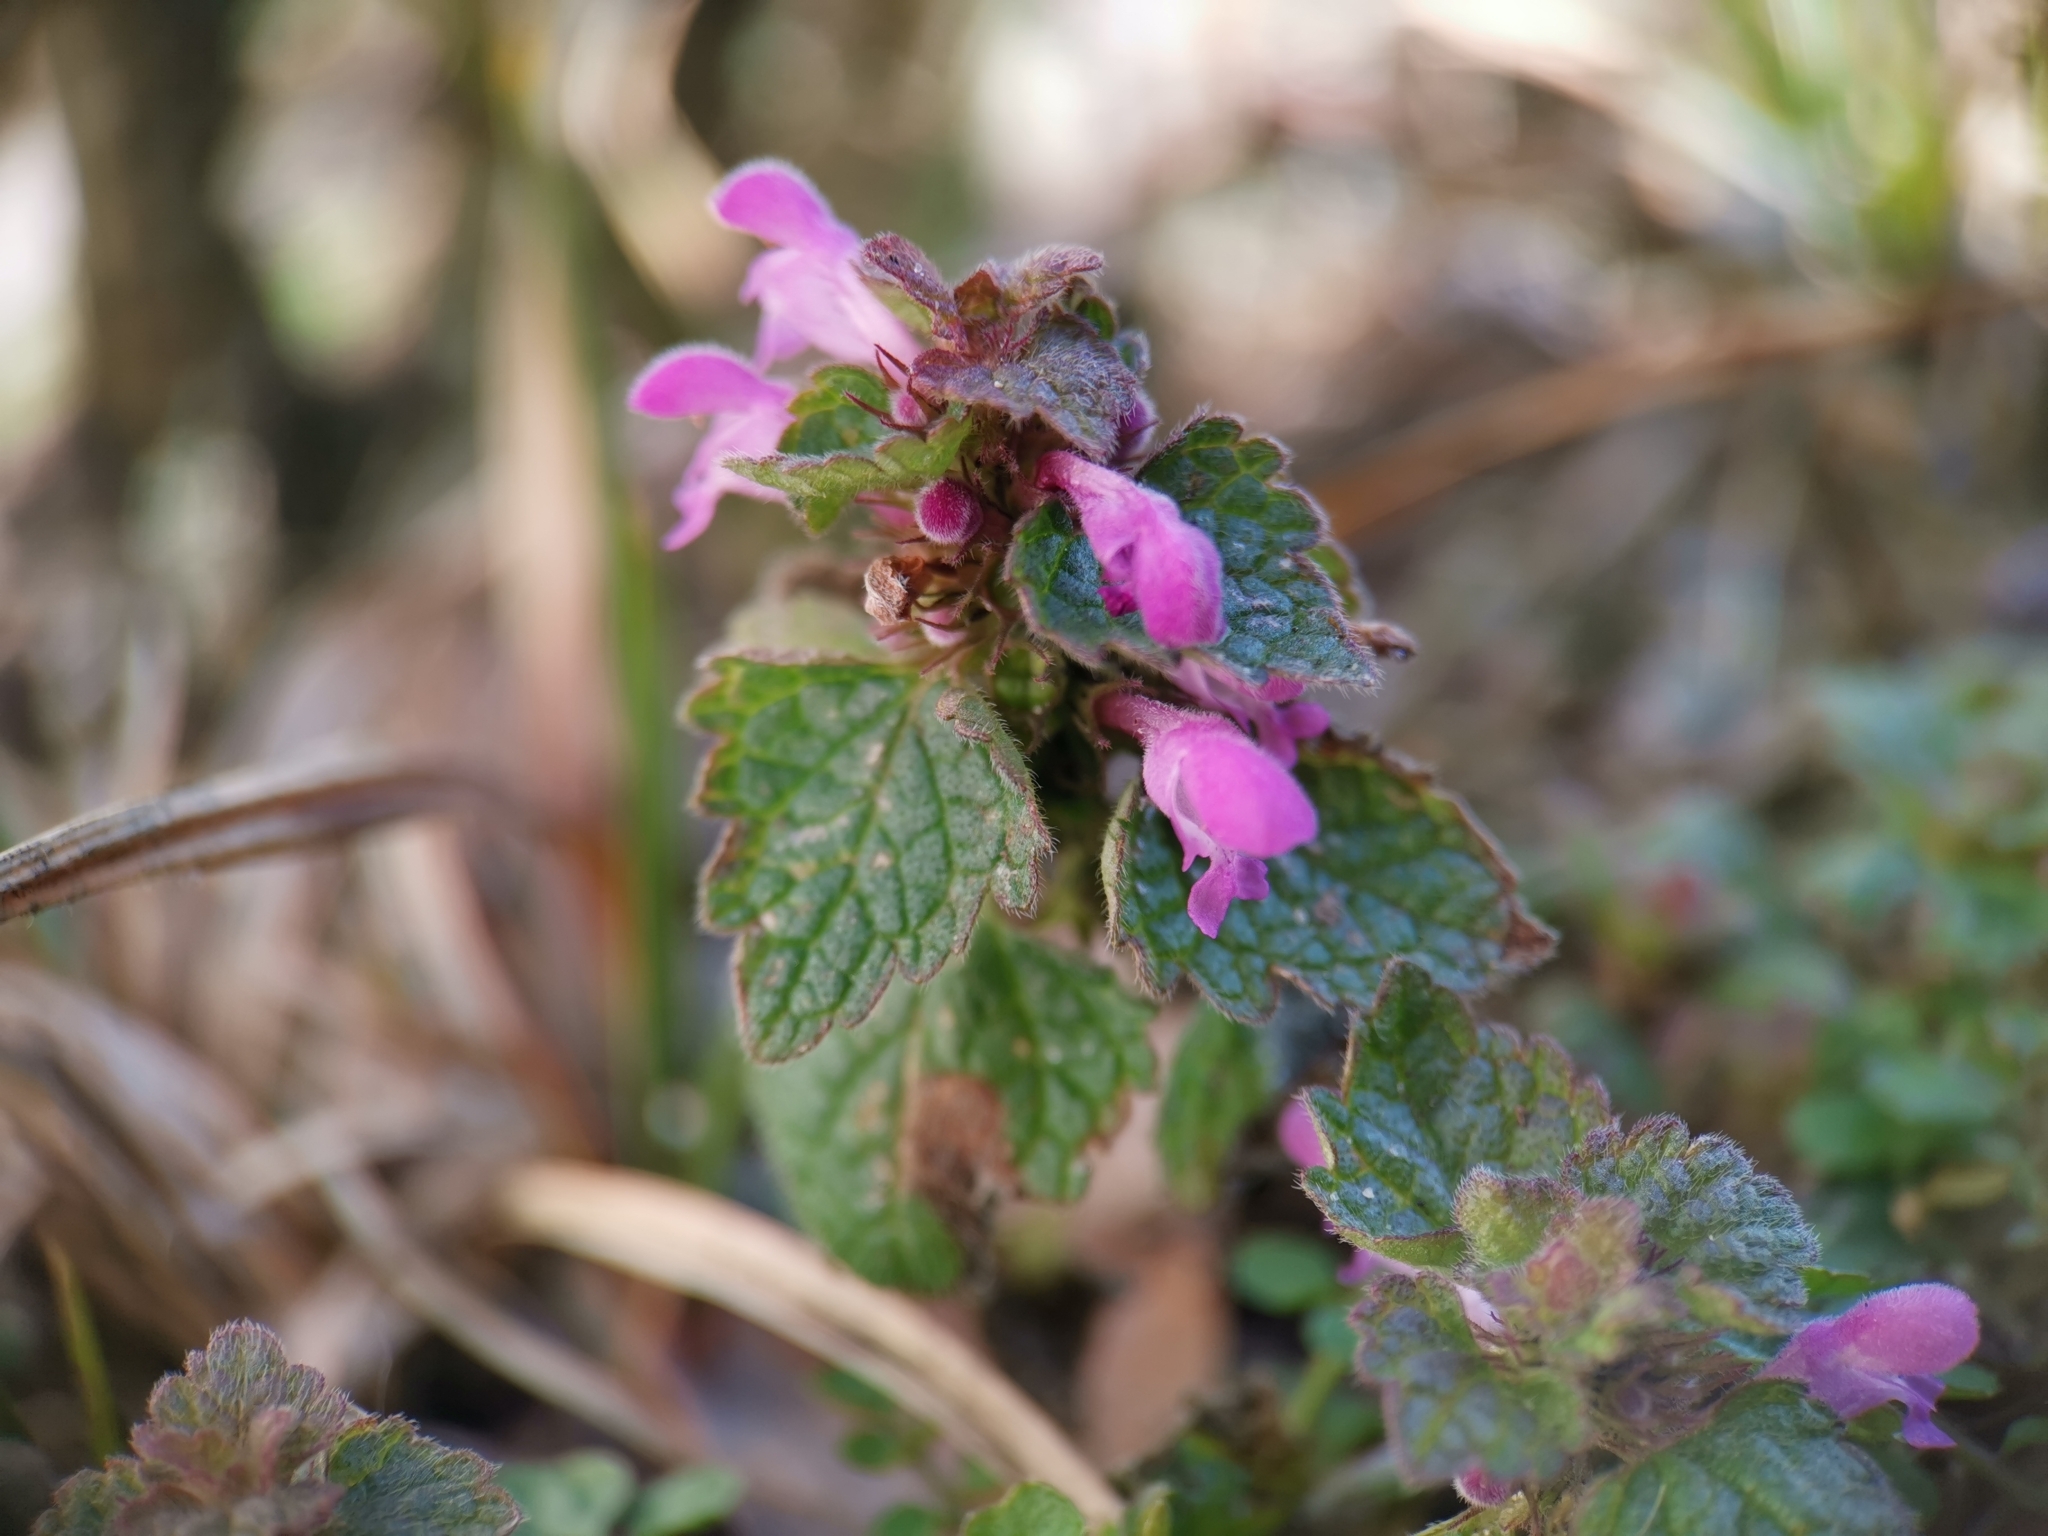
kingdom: Plantae
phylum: Tracheophyta
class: Magnoliopsida
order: Lamiales
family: Lamiaceae
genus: Lamium
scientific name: Lamium purpureum
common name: Red dead-nettle
